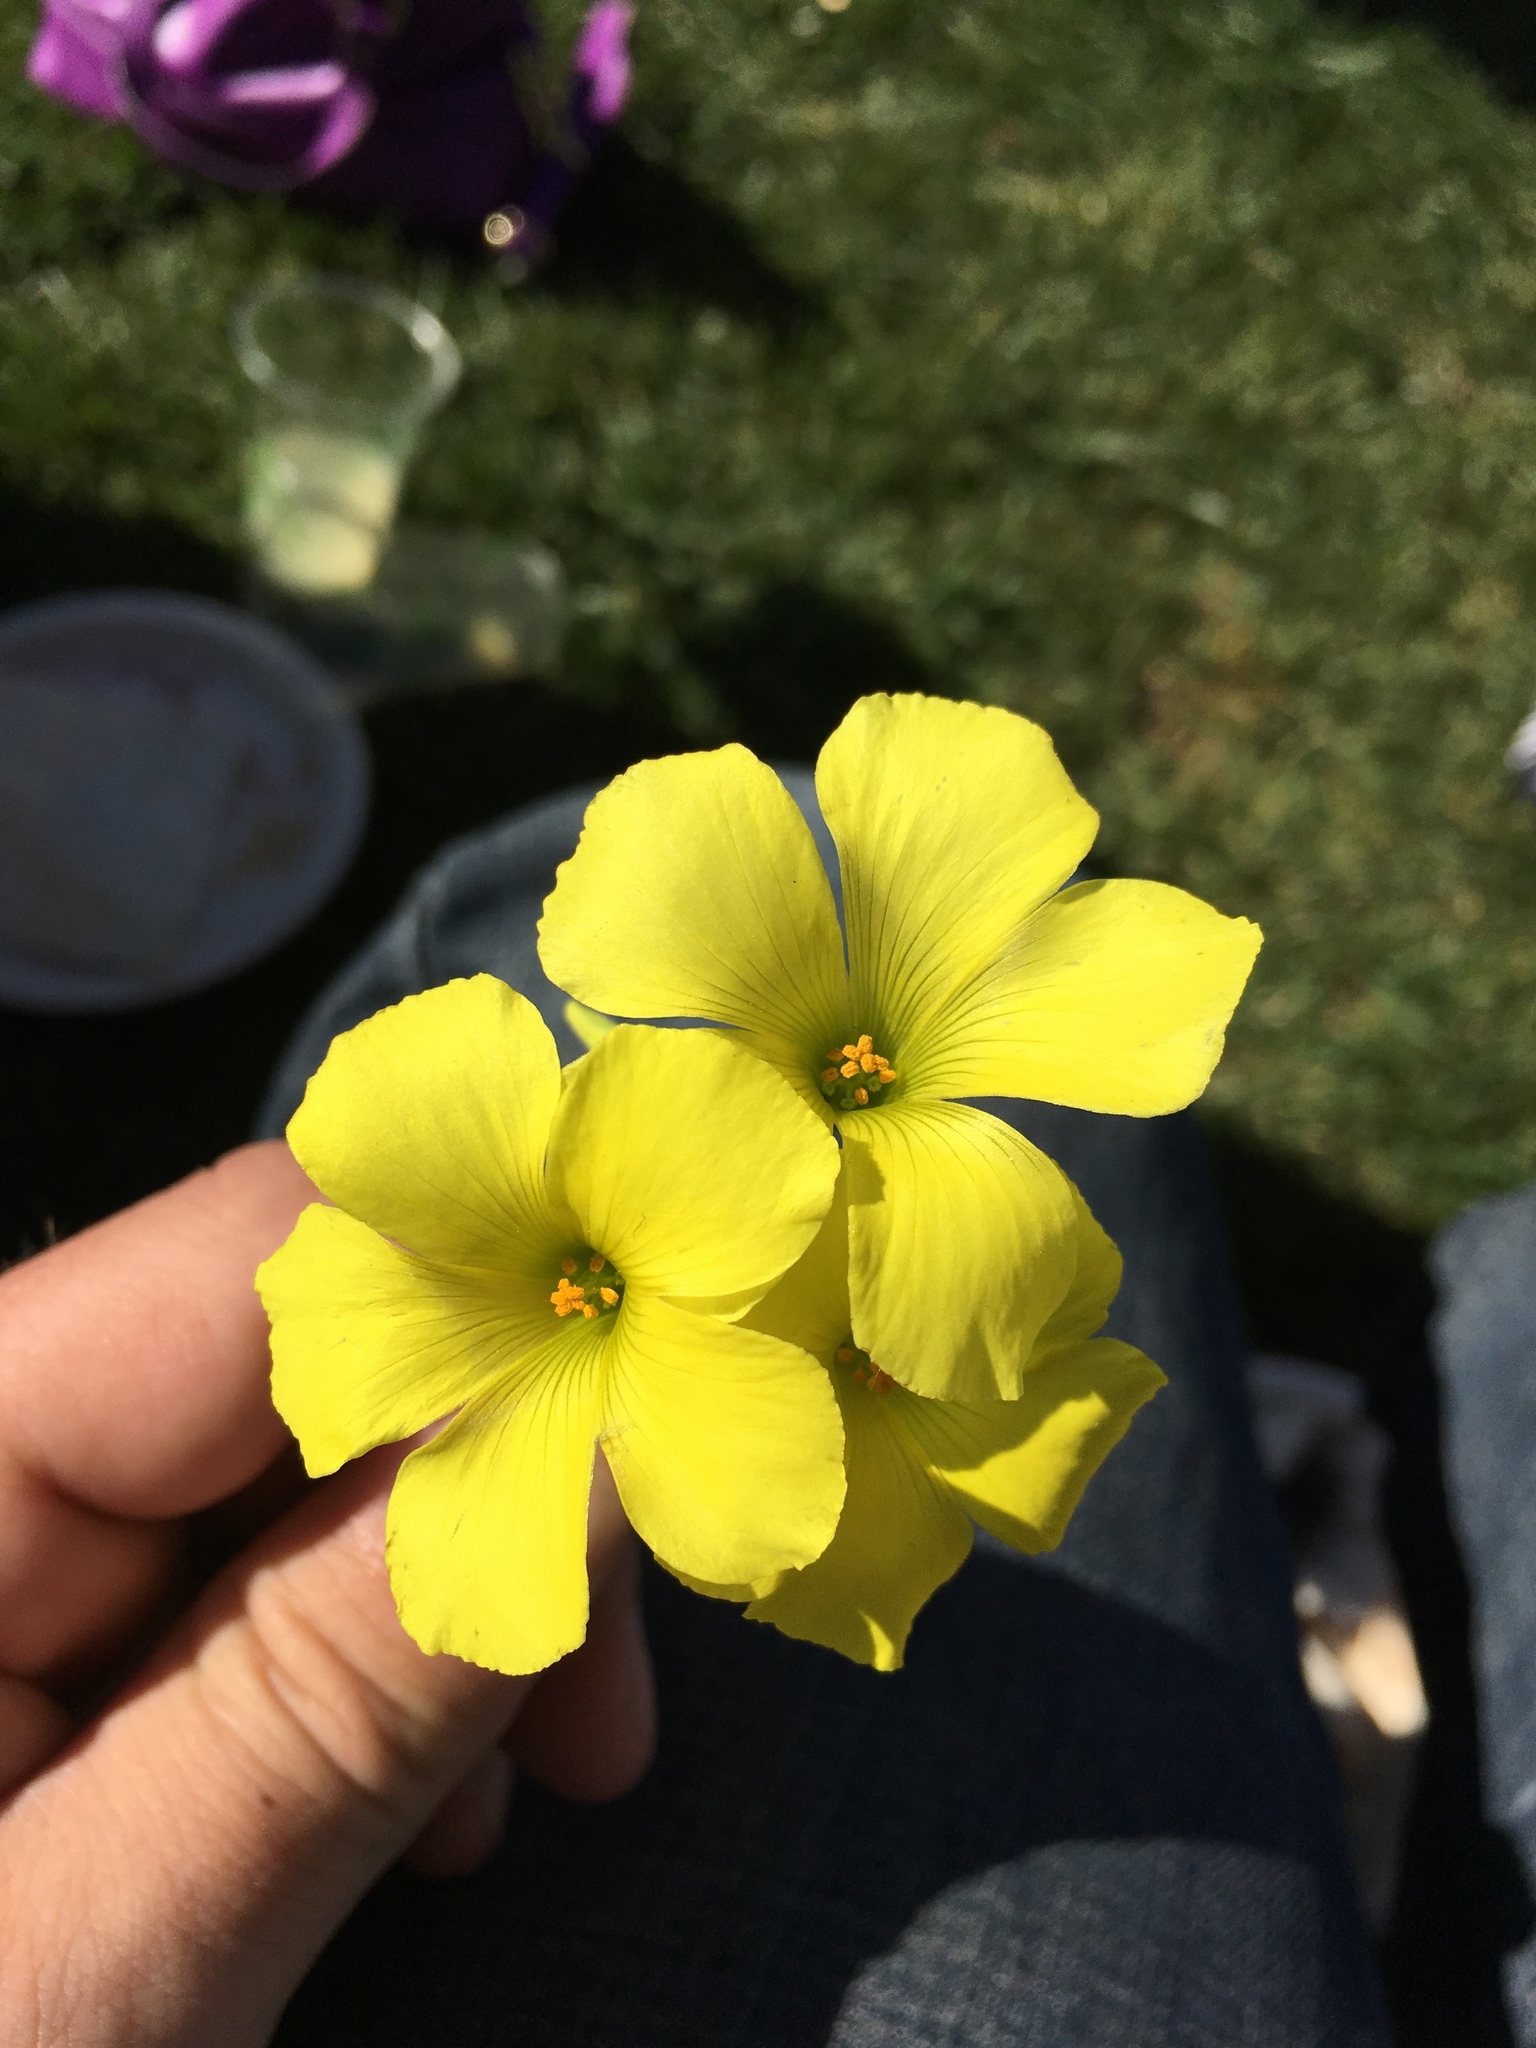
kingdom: Plantae
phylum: Tracheophyta
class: Magnoliopsida
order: Oxalidales
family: Oxalidaceae
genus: Oxalis
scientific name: Oxalis pes-caprae
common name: Bermuda-buttercup
